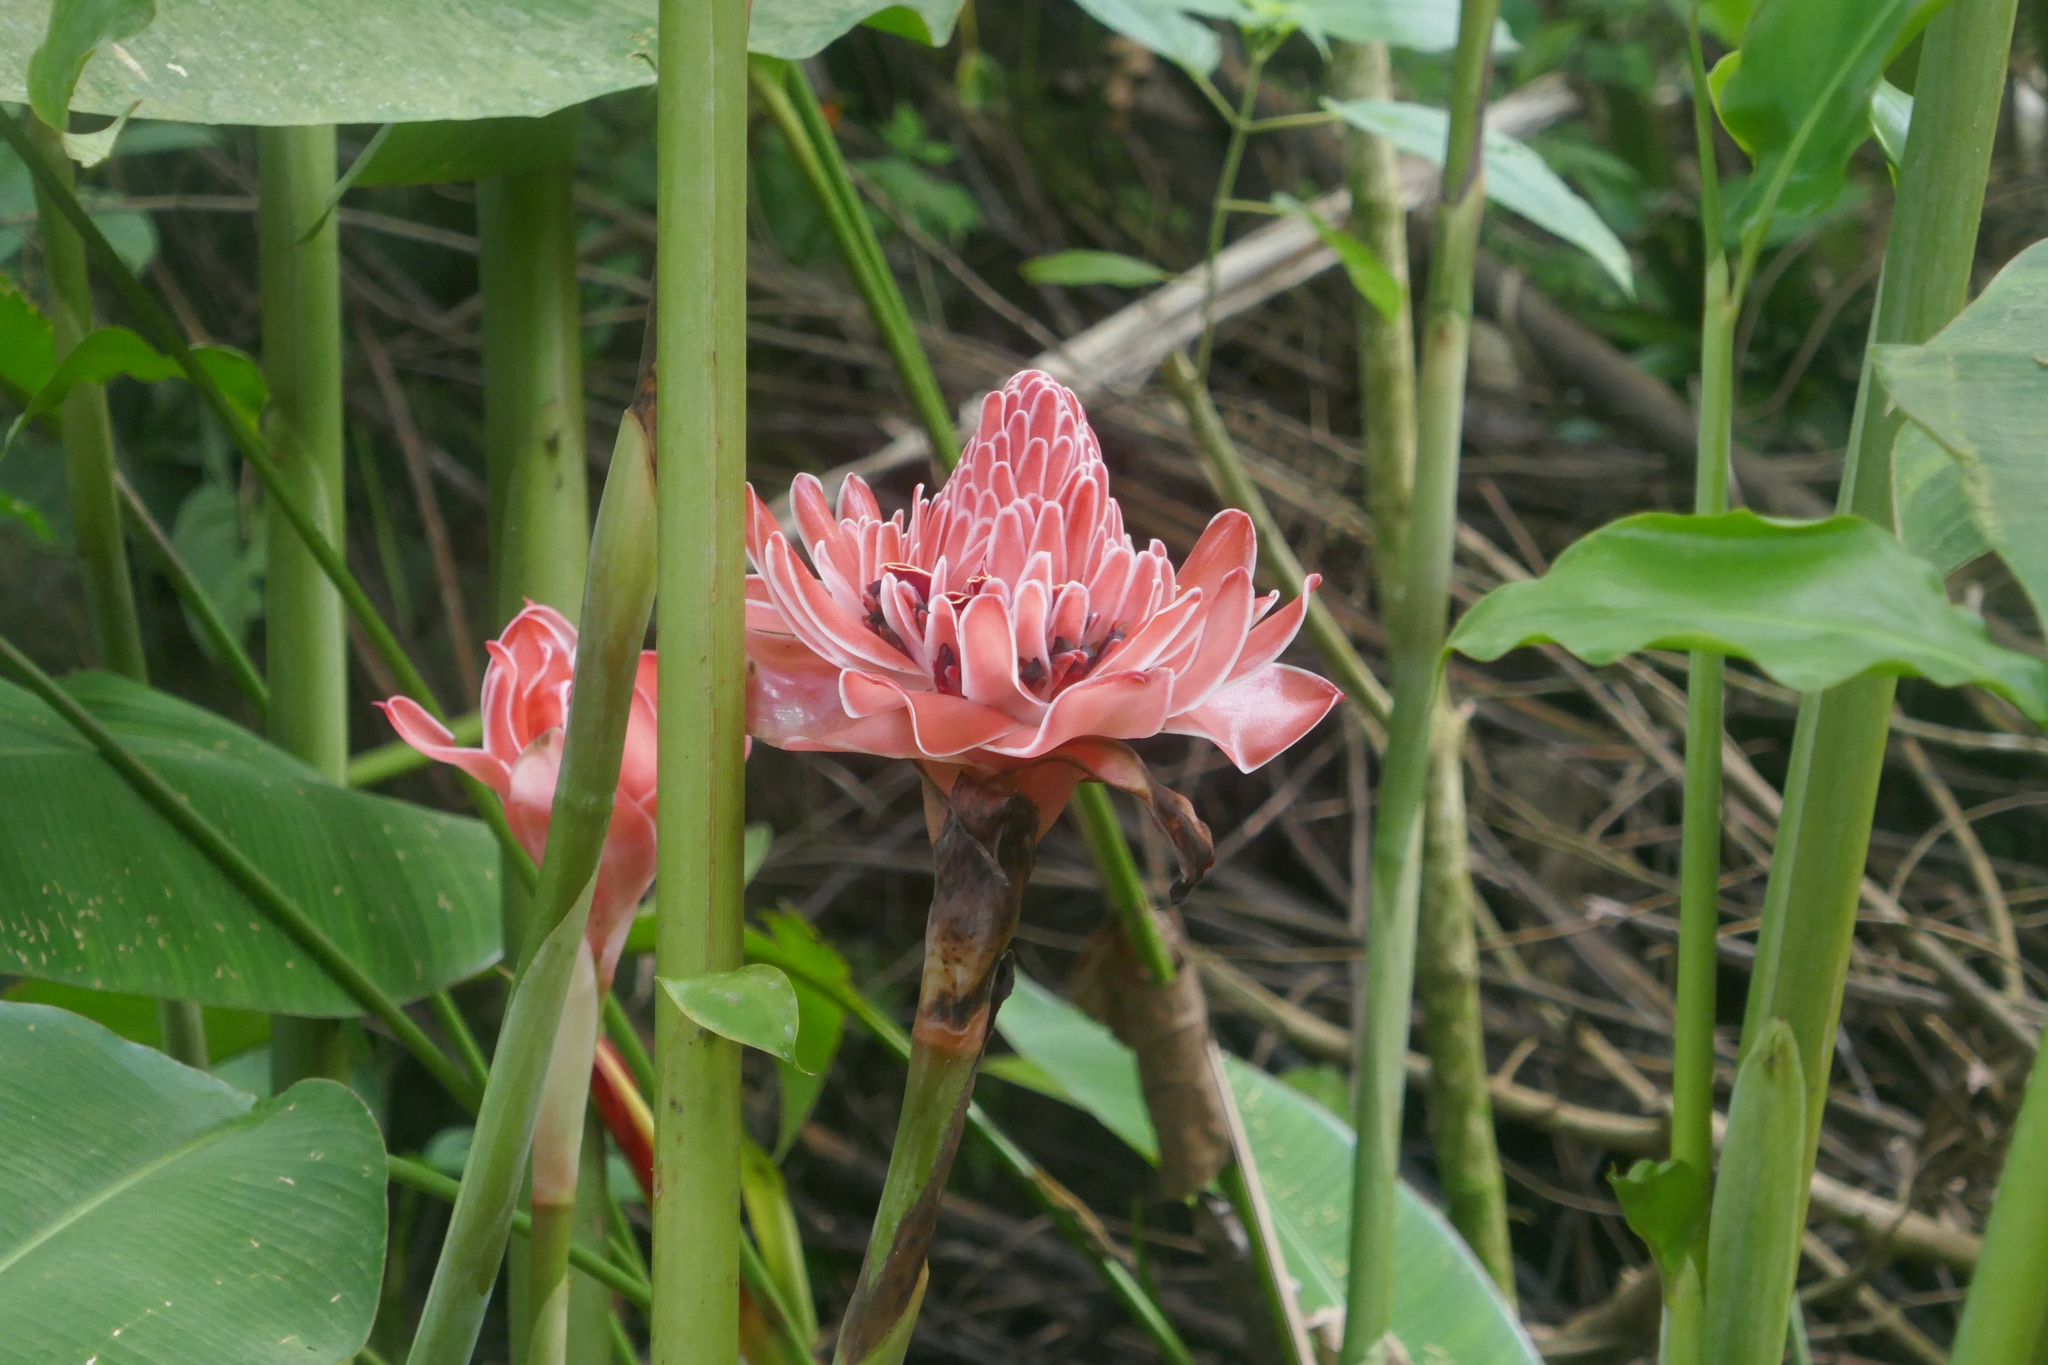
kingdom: Plantae
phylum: Tracheophyta
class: Liliopsida
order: Zingiberales
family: Zingiberaceae
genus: Etlingera
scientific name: Etlingera elatior
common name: Philippine waxflower
